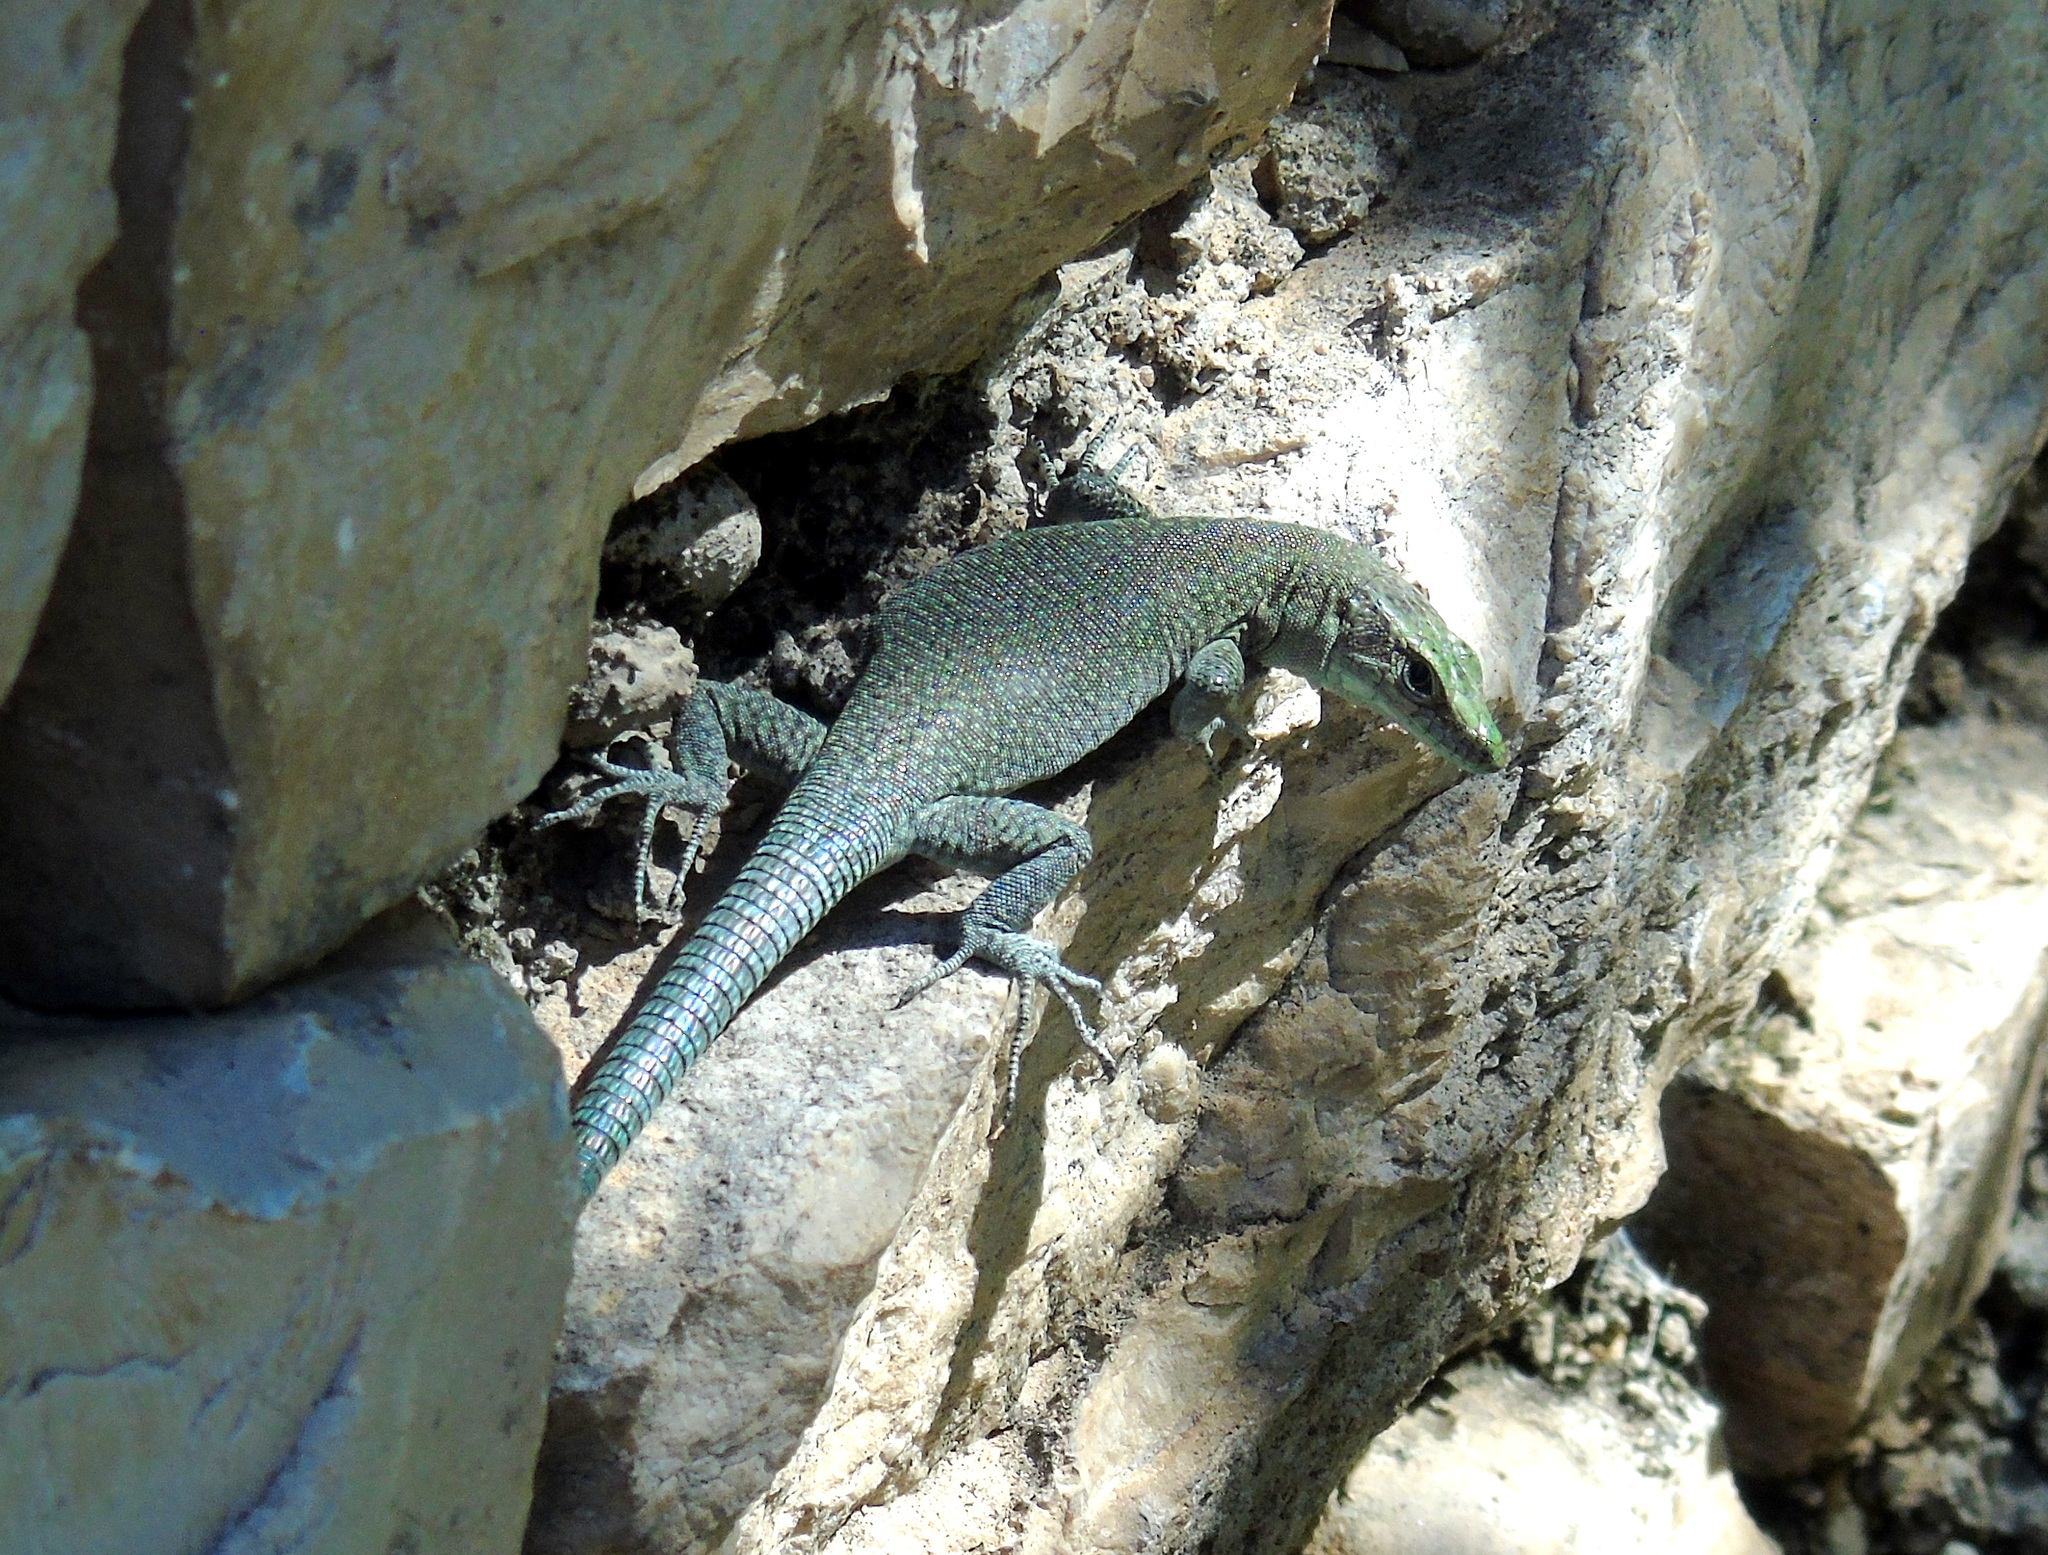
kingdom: Animalia
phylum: Chordata
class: Squamata
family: Lacertidae
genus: Dalmatolacerta
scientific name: Dalmatolacerta oxycephala
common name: Sharp-snouted rock lizard
